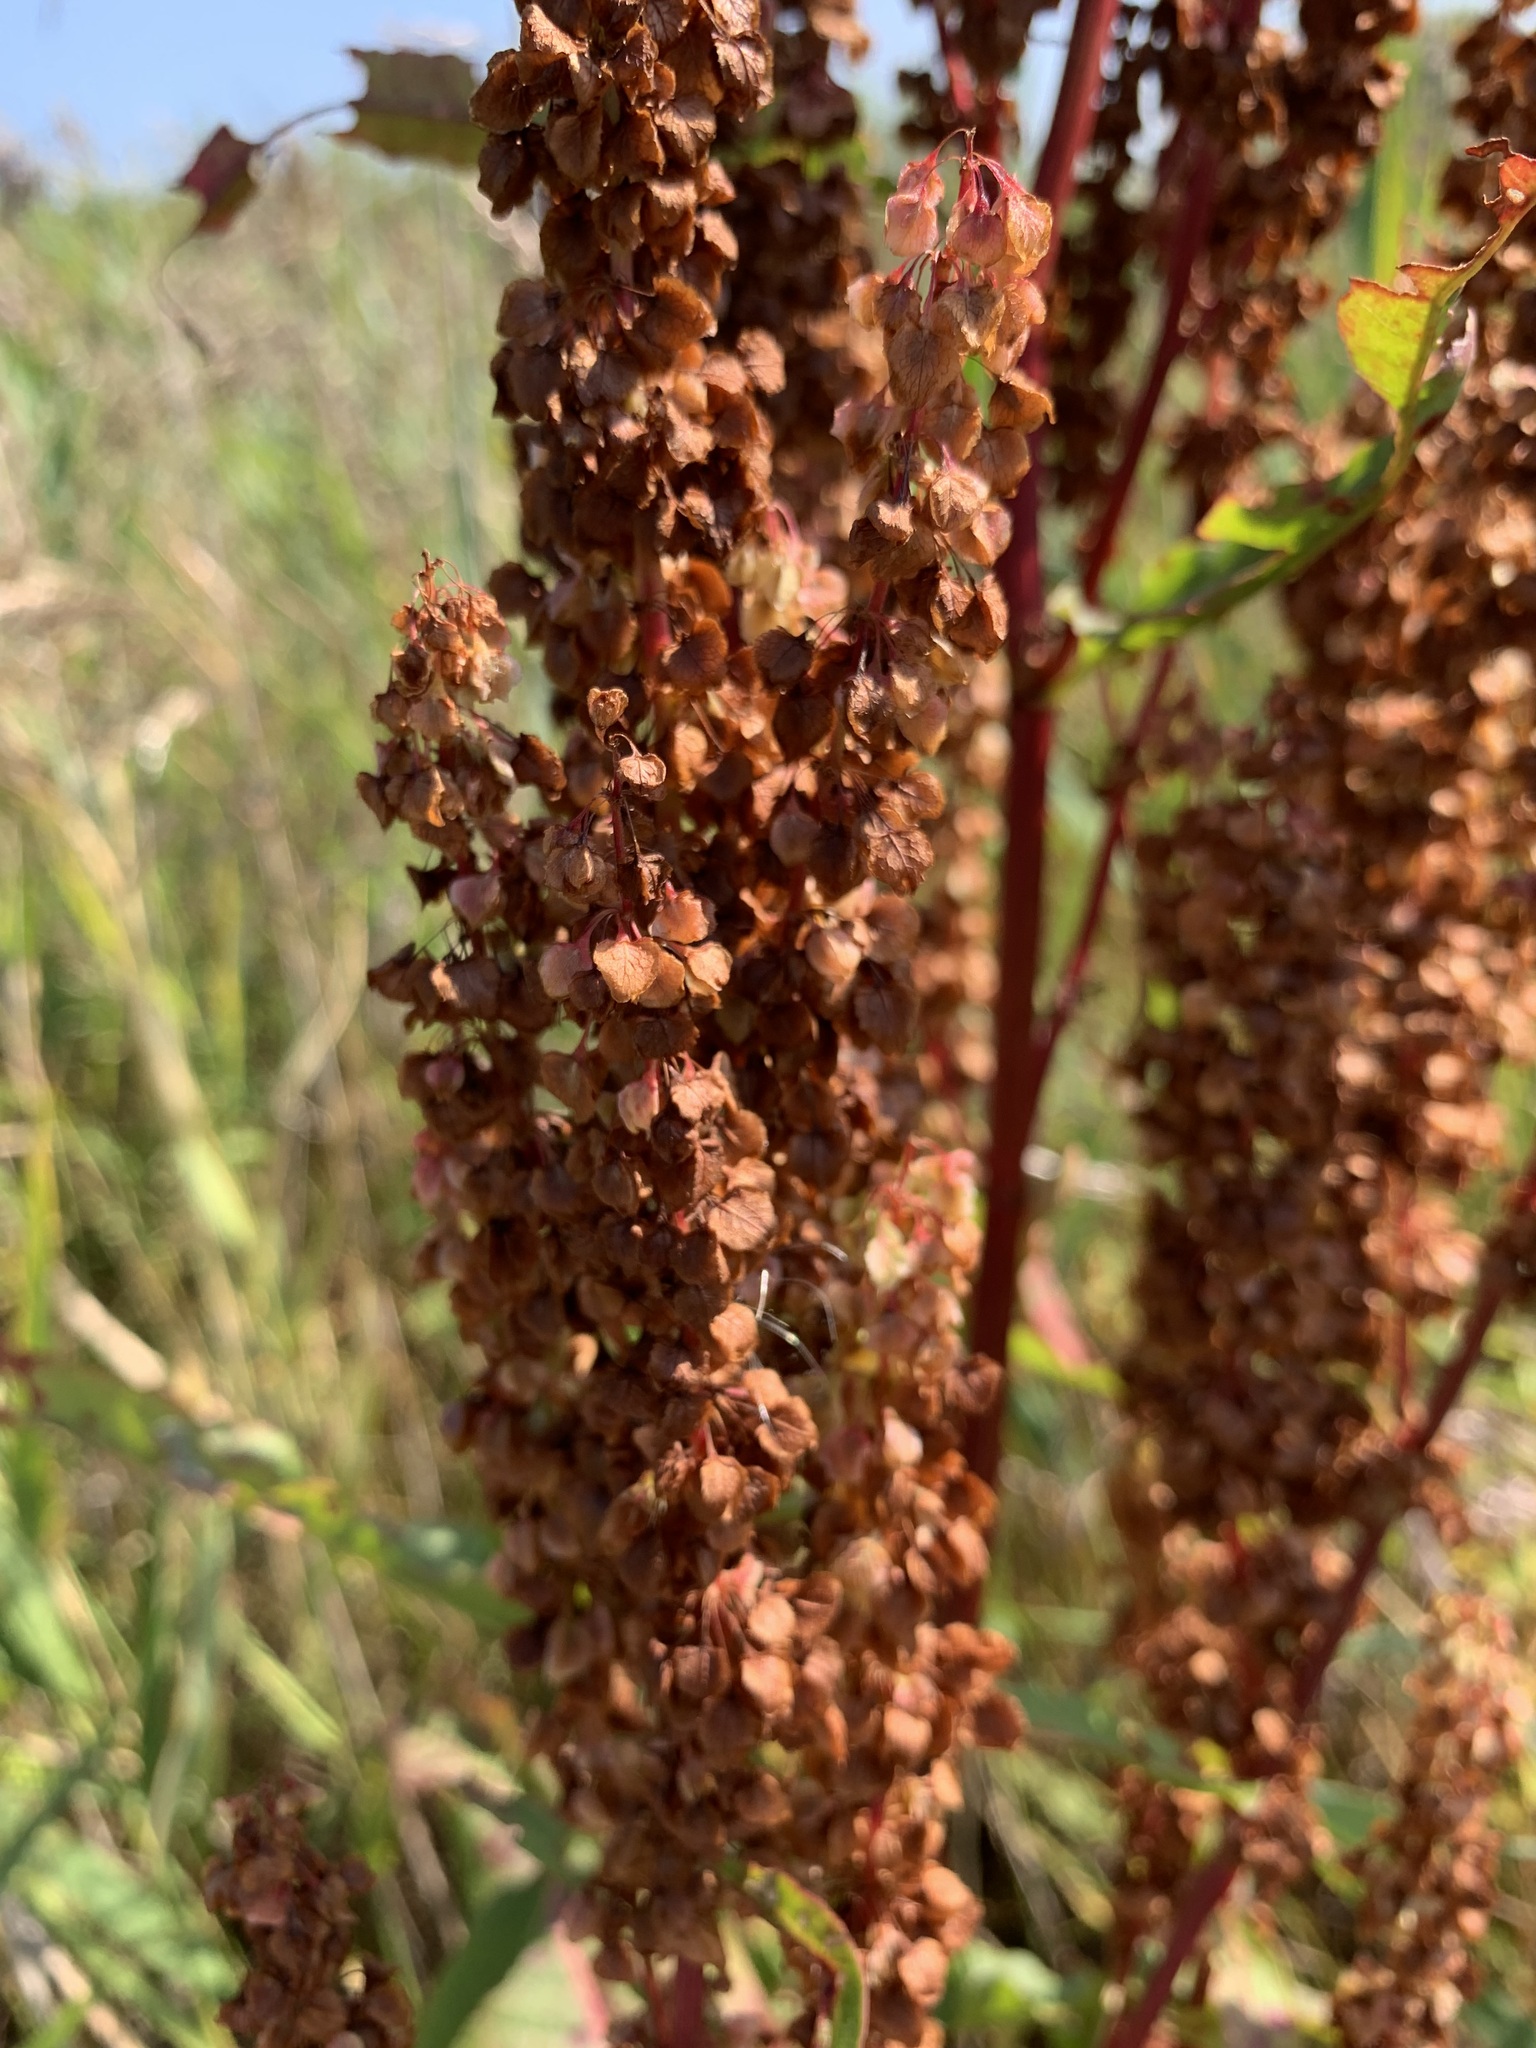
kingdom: Plantae
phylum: Tracheophyta
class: Magnoliopsida
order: Caryophyllales
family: Polygonaceae
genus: Rumex
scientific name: Rumex aquaticus
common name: Scottish dock
